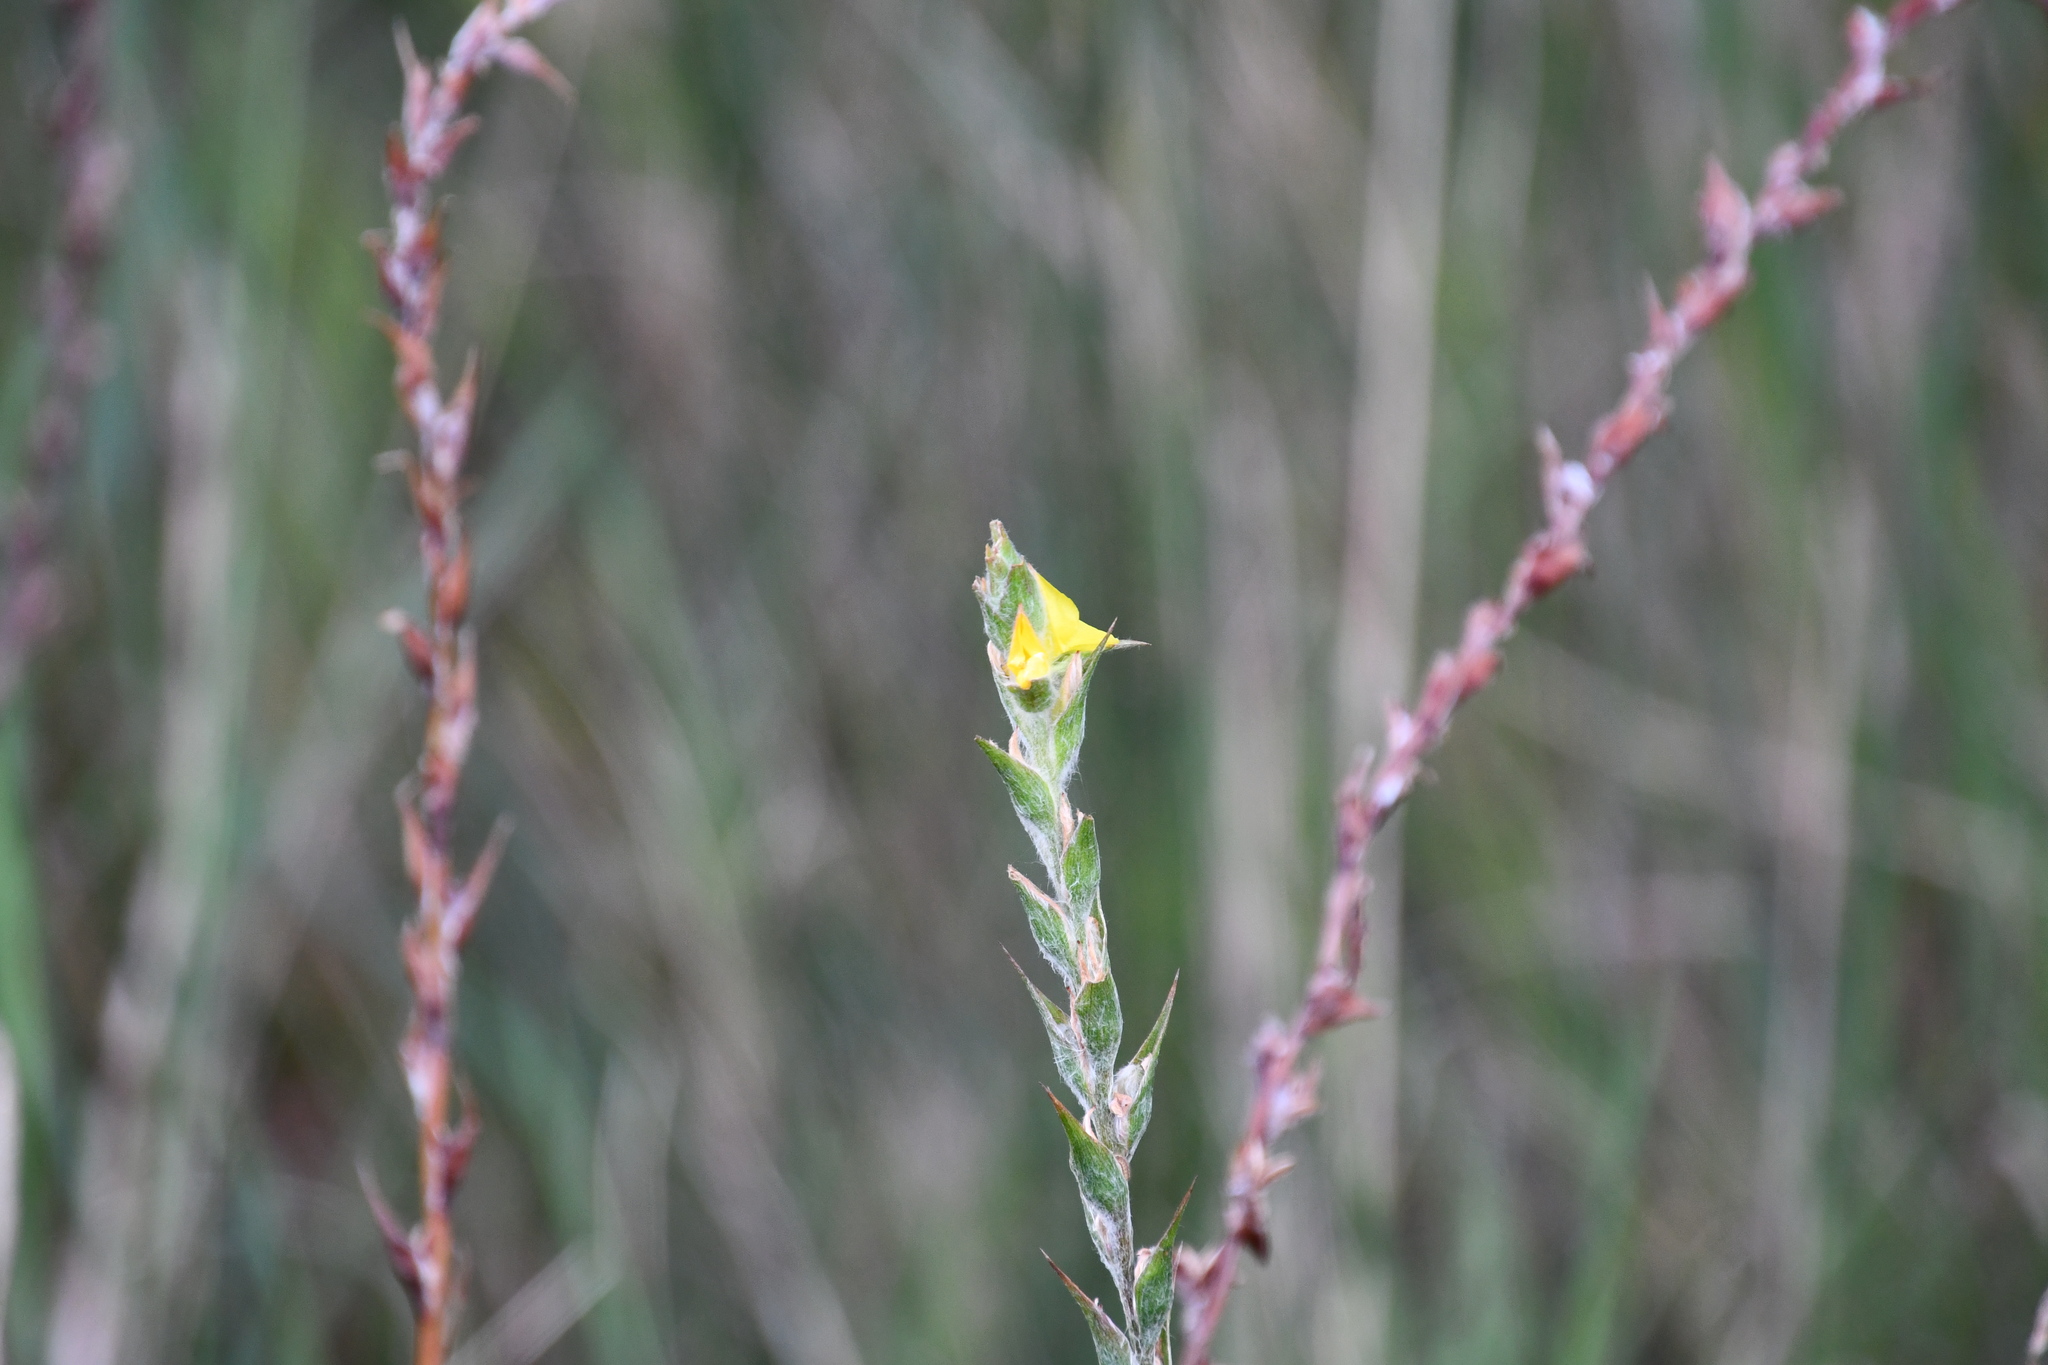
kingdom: Plantae
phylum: Tracheophyta
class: Liliopsida
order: Commelinales
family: Philydraceae
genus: Philydrum
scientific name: Philydrum lanuginosum
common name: Woolly frog's mouth
